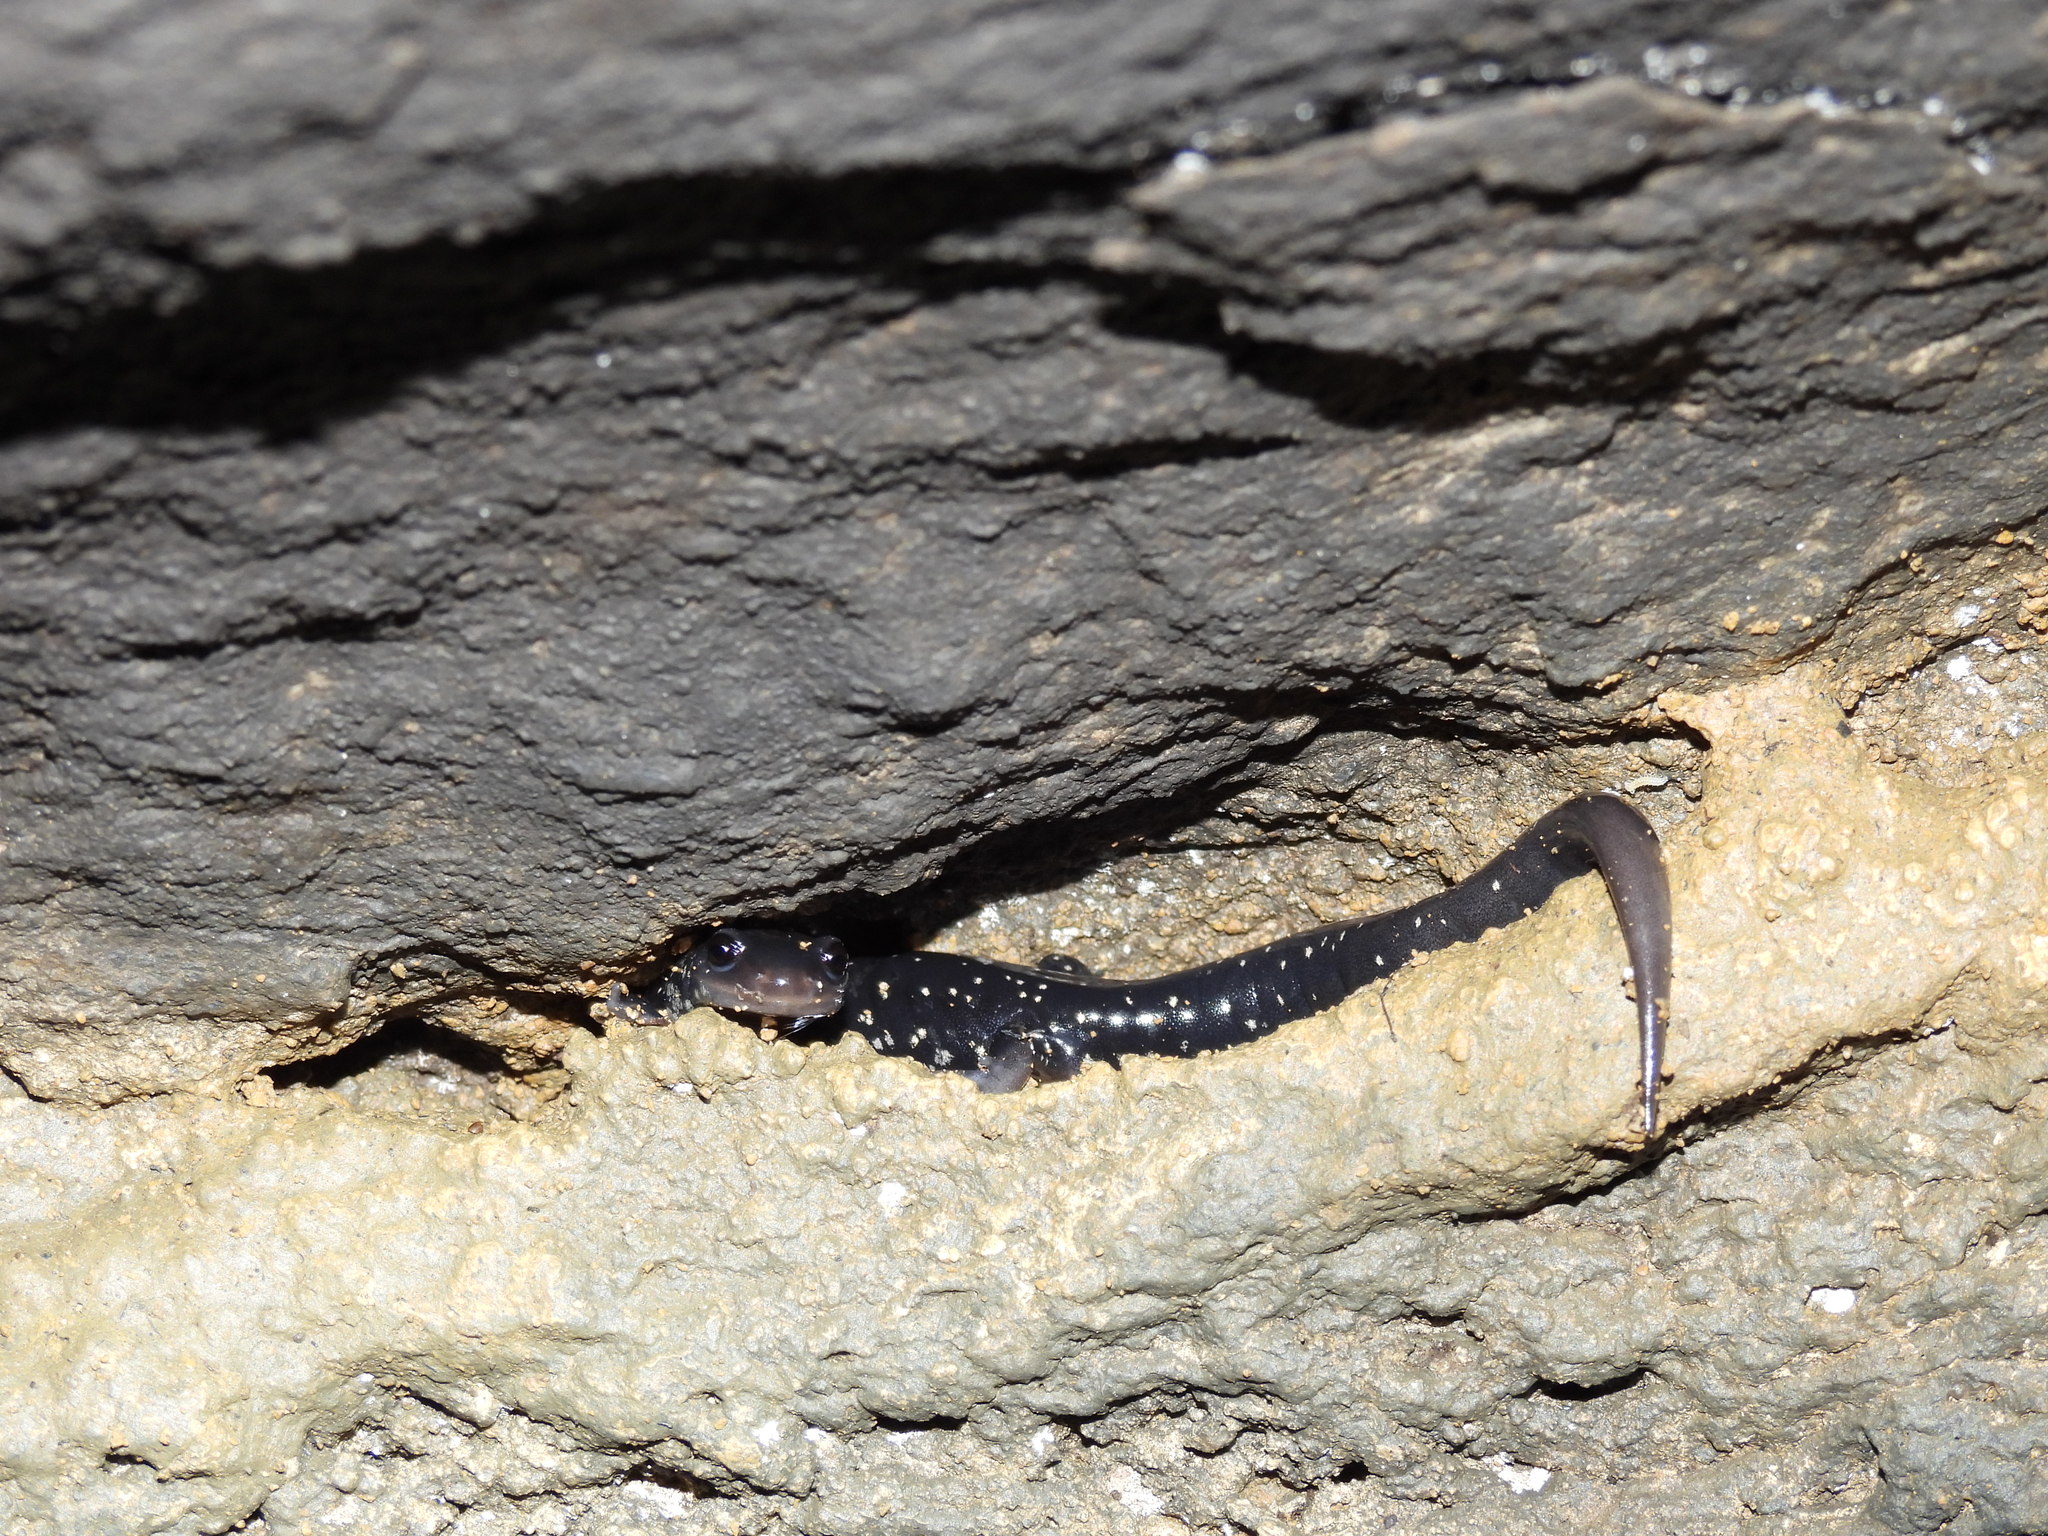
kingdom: Animalia
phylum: Chordata
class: Amphibia
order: Caudata
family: Plethodontidae
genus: Plethodon
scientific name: Plethodon glutinosus
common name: Northern slimy salamander
